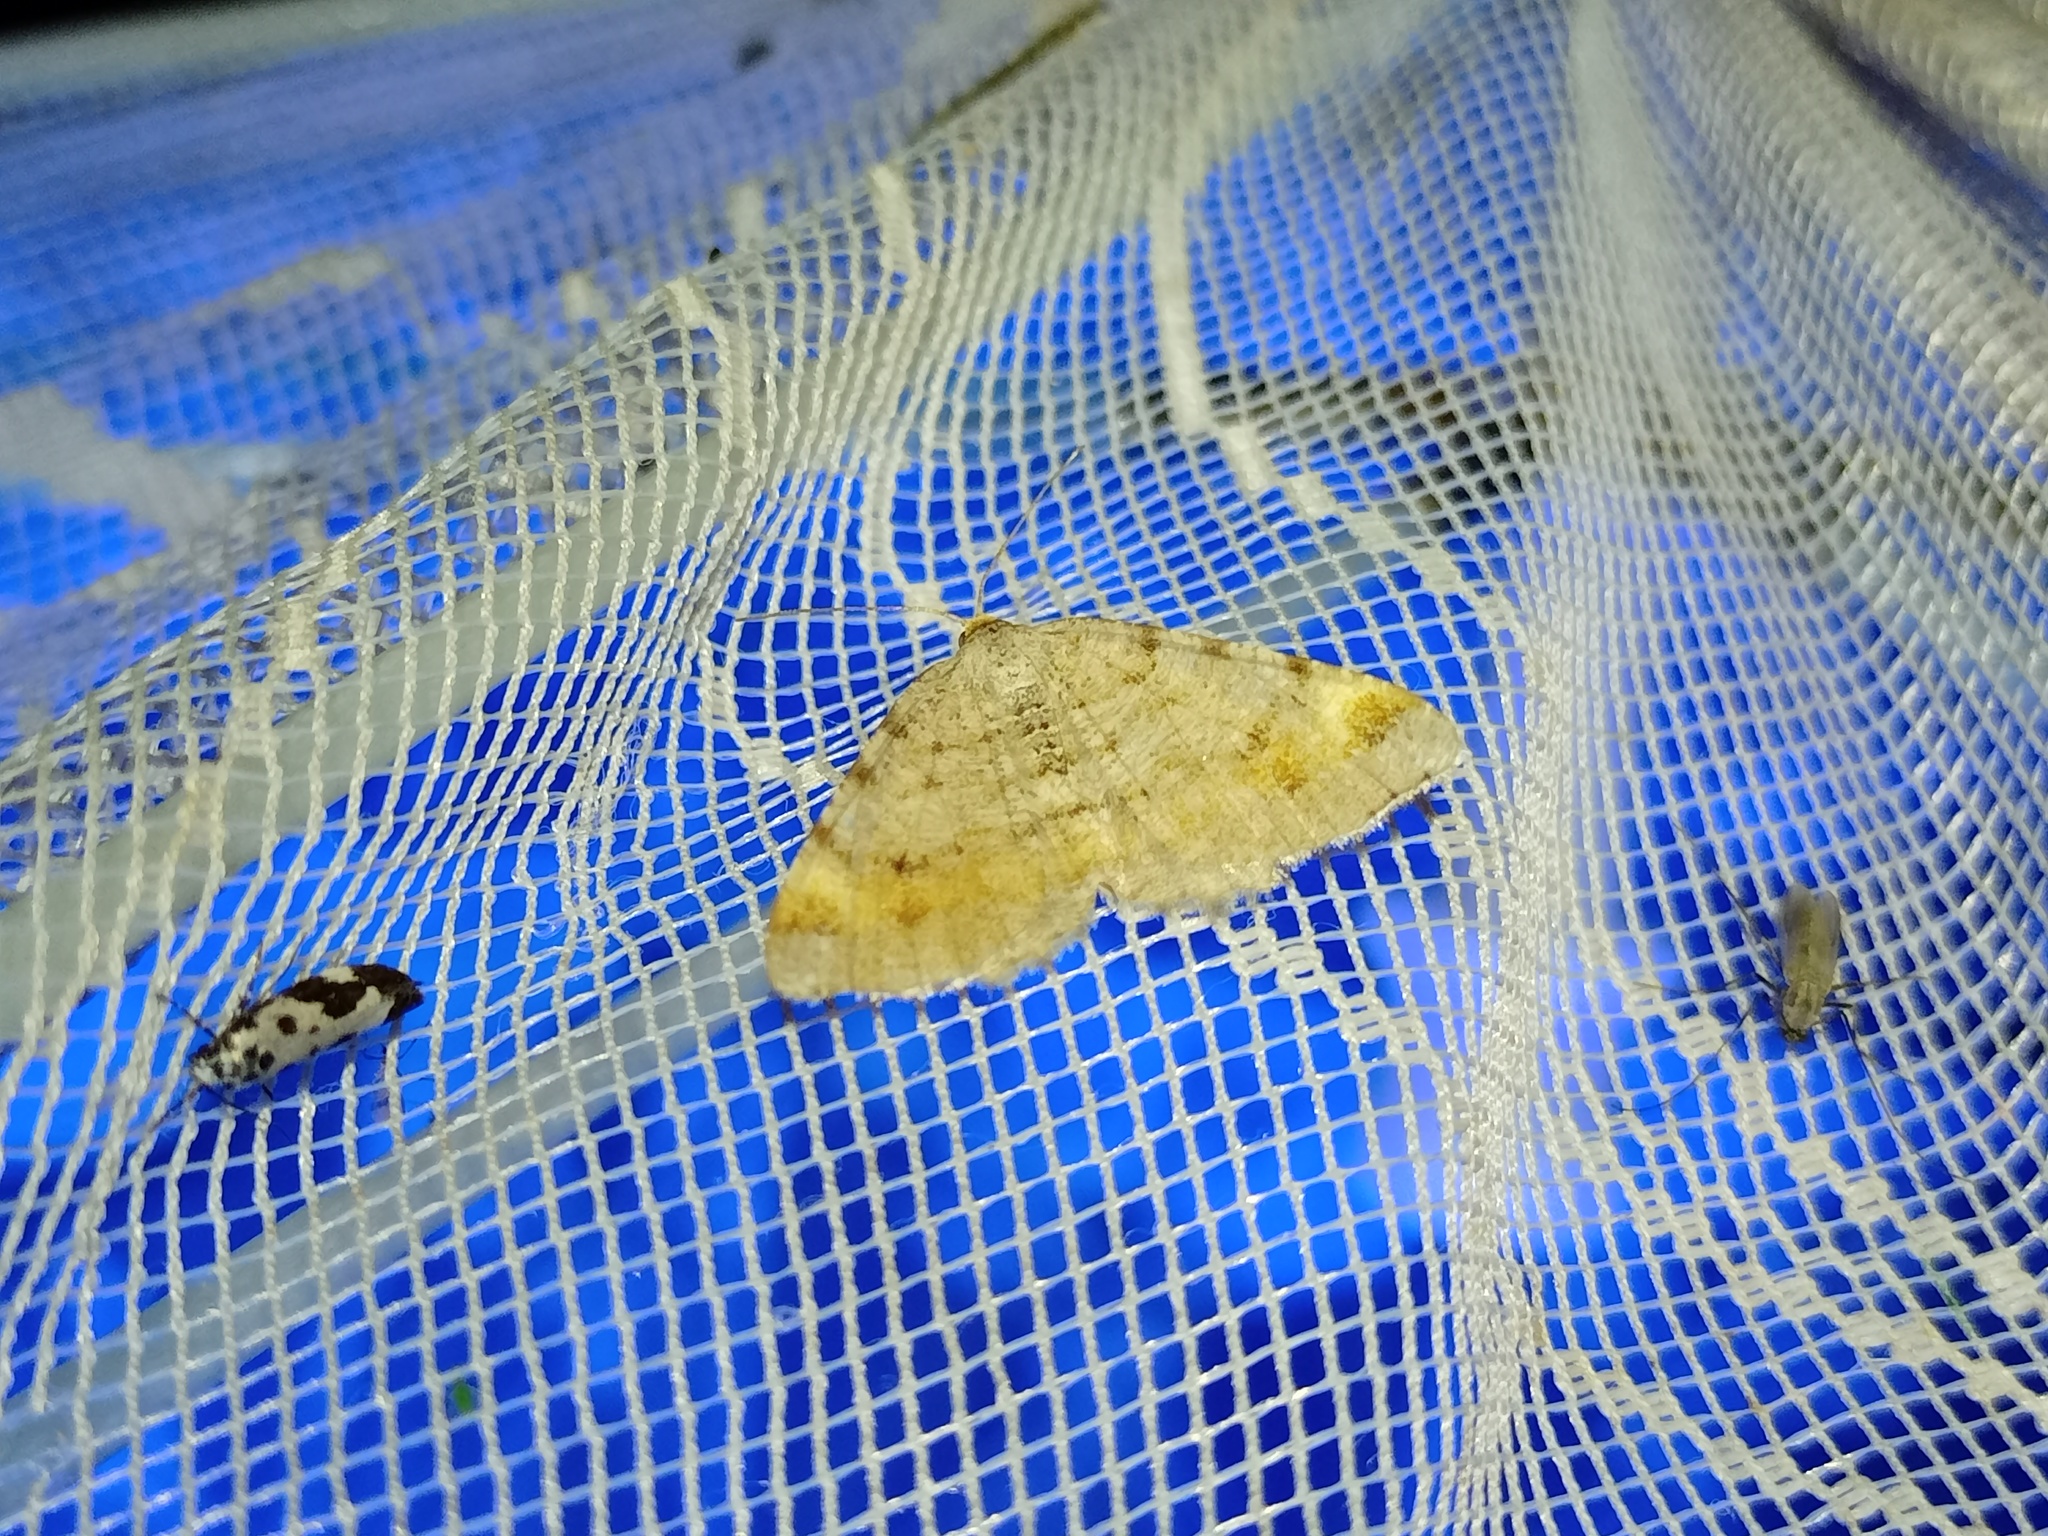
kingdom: Animalia
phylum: Arthropoda
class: Insecta
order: Lepidoptera
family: Geometridae
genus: Macaria
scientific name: Macaria liturata
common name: Tawny-barred angle
